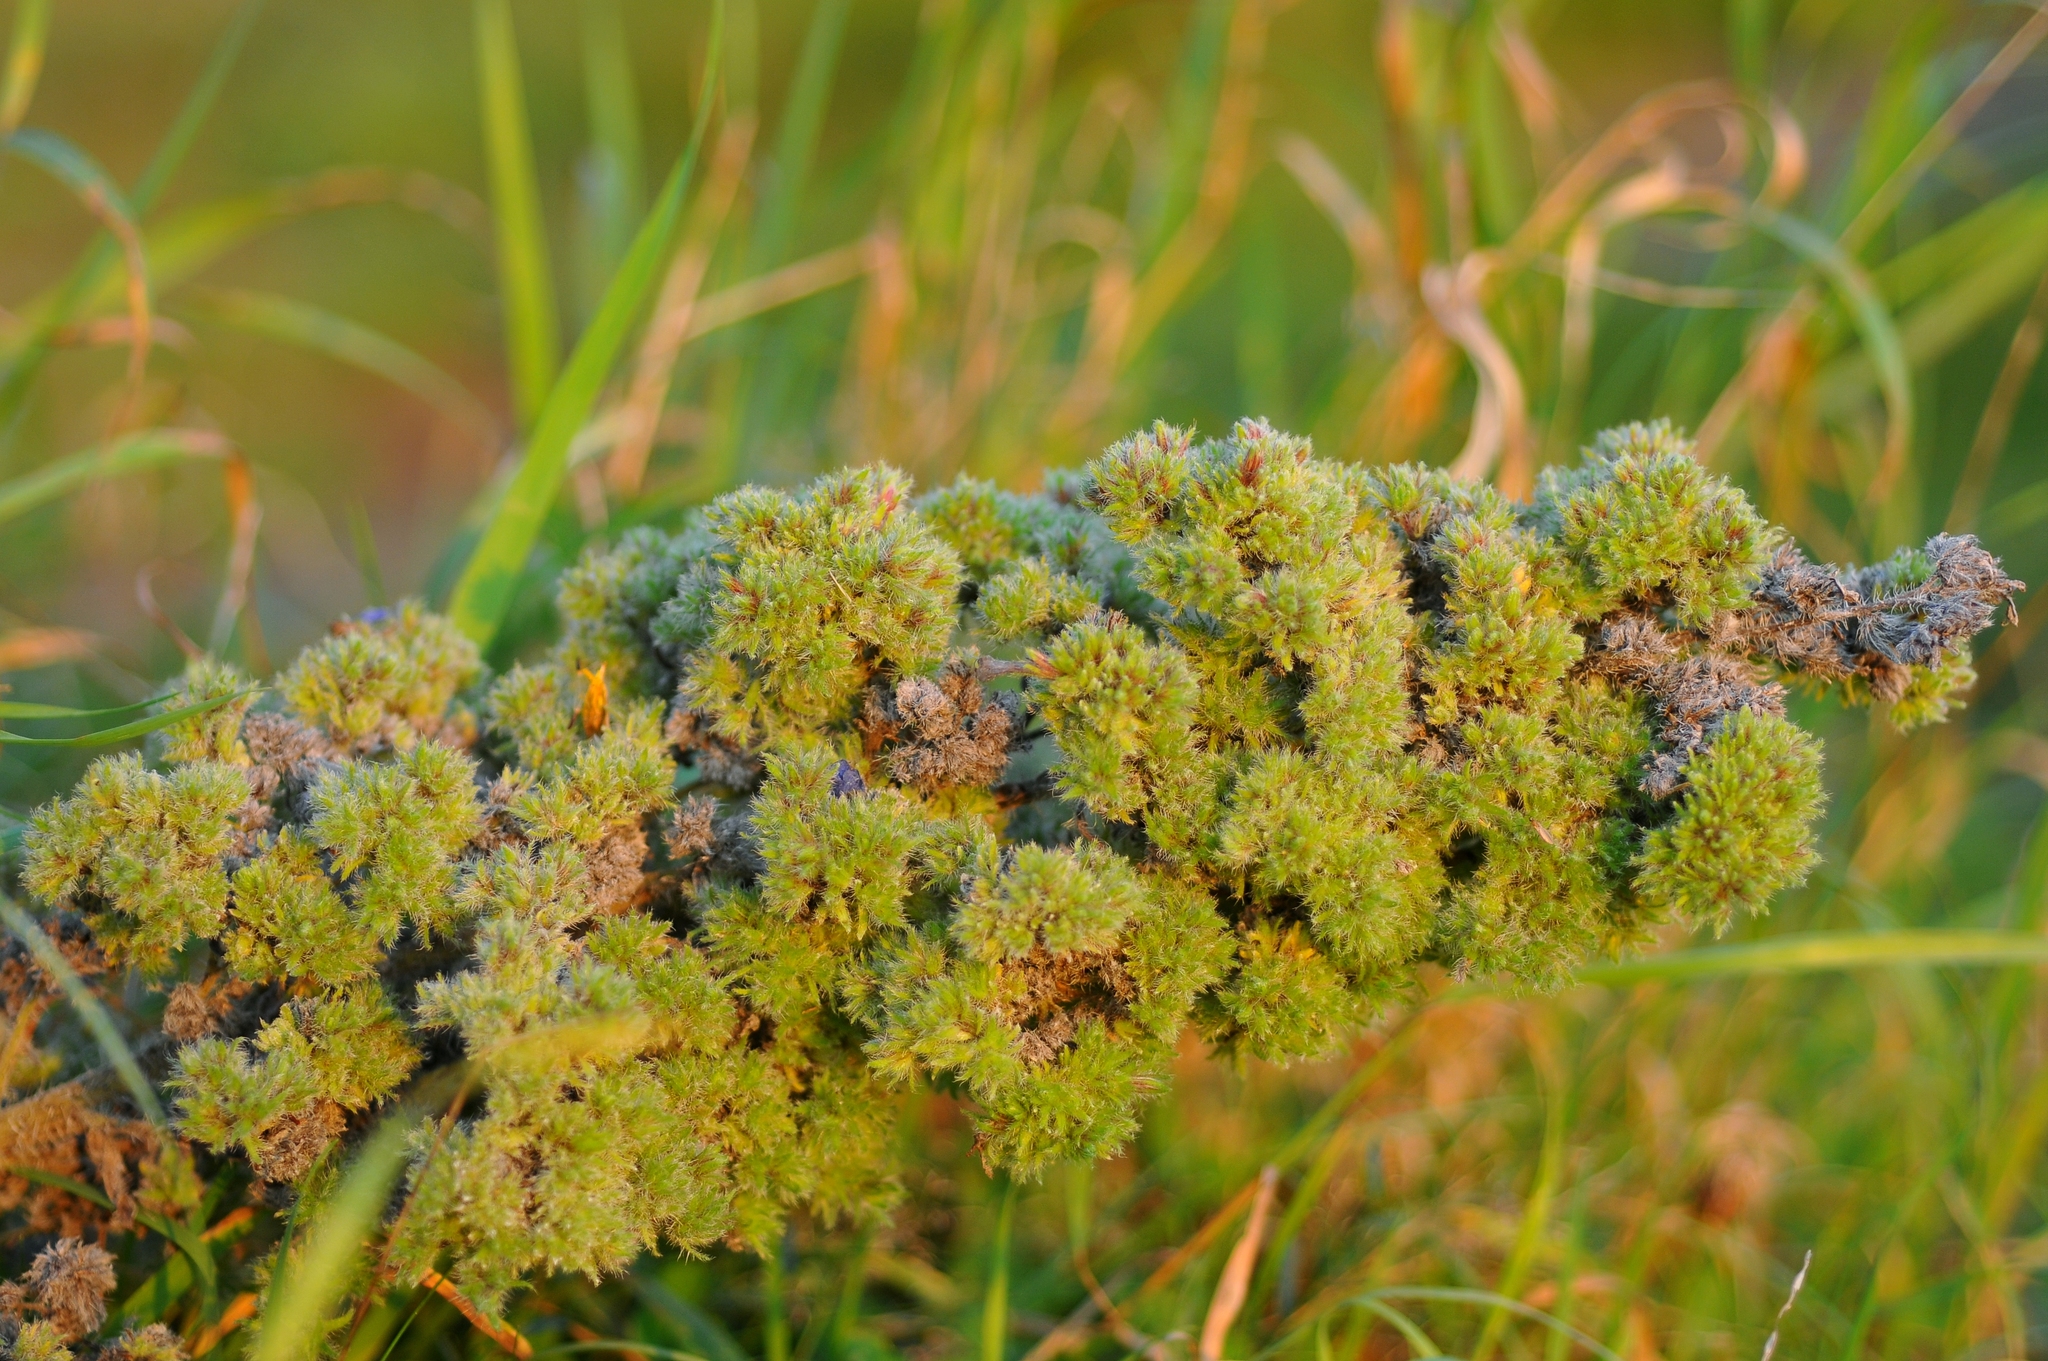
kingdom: Animalia
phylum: Arthropoda
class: Arachnida
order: Trombidiformes
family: Eriophyidae
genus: Aceria
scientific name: Aceria echii
